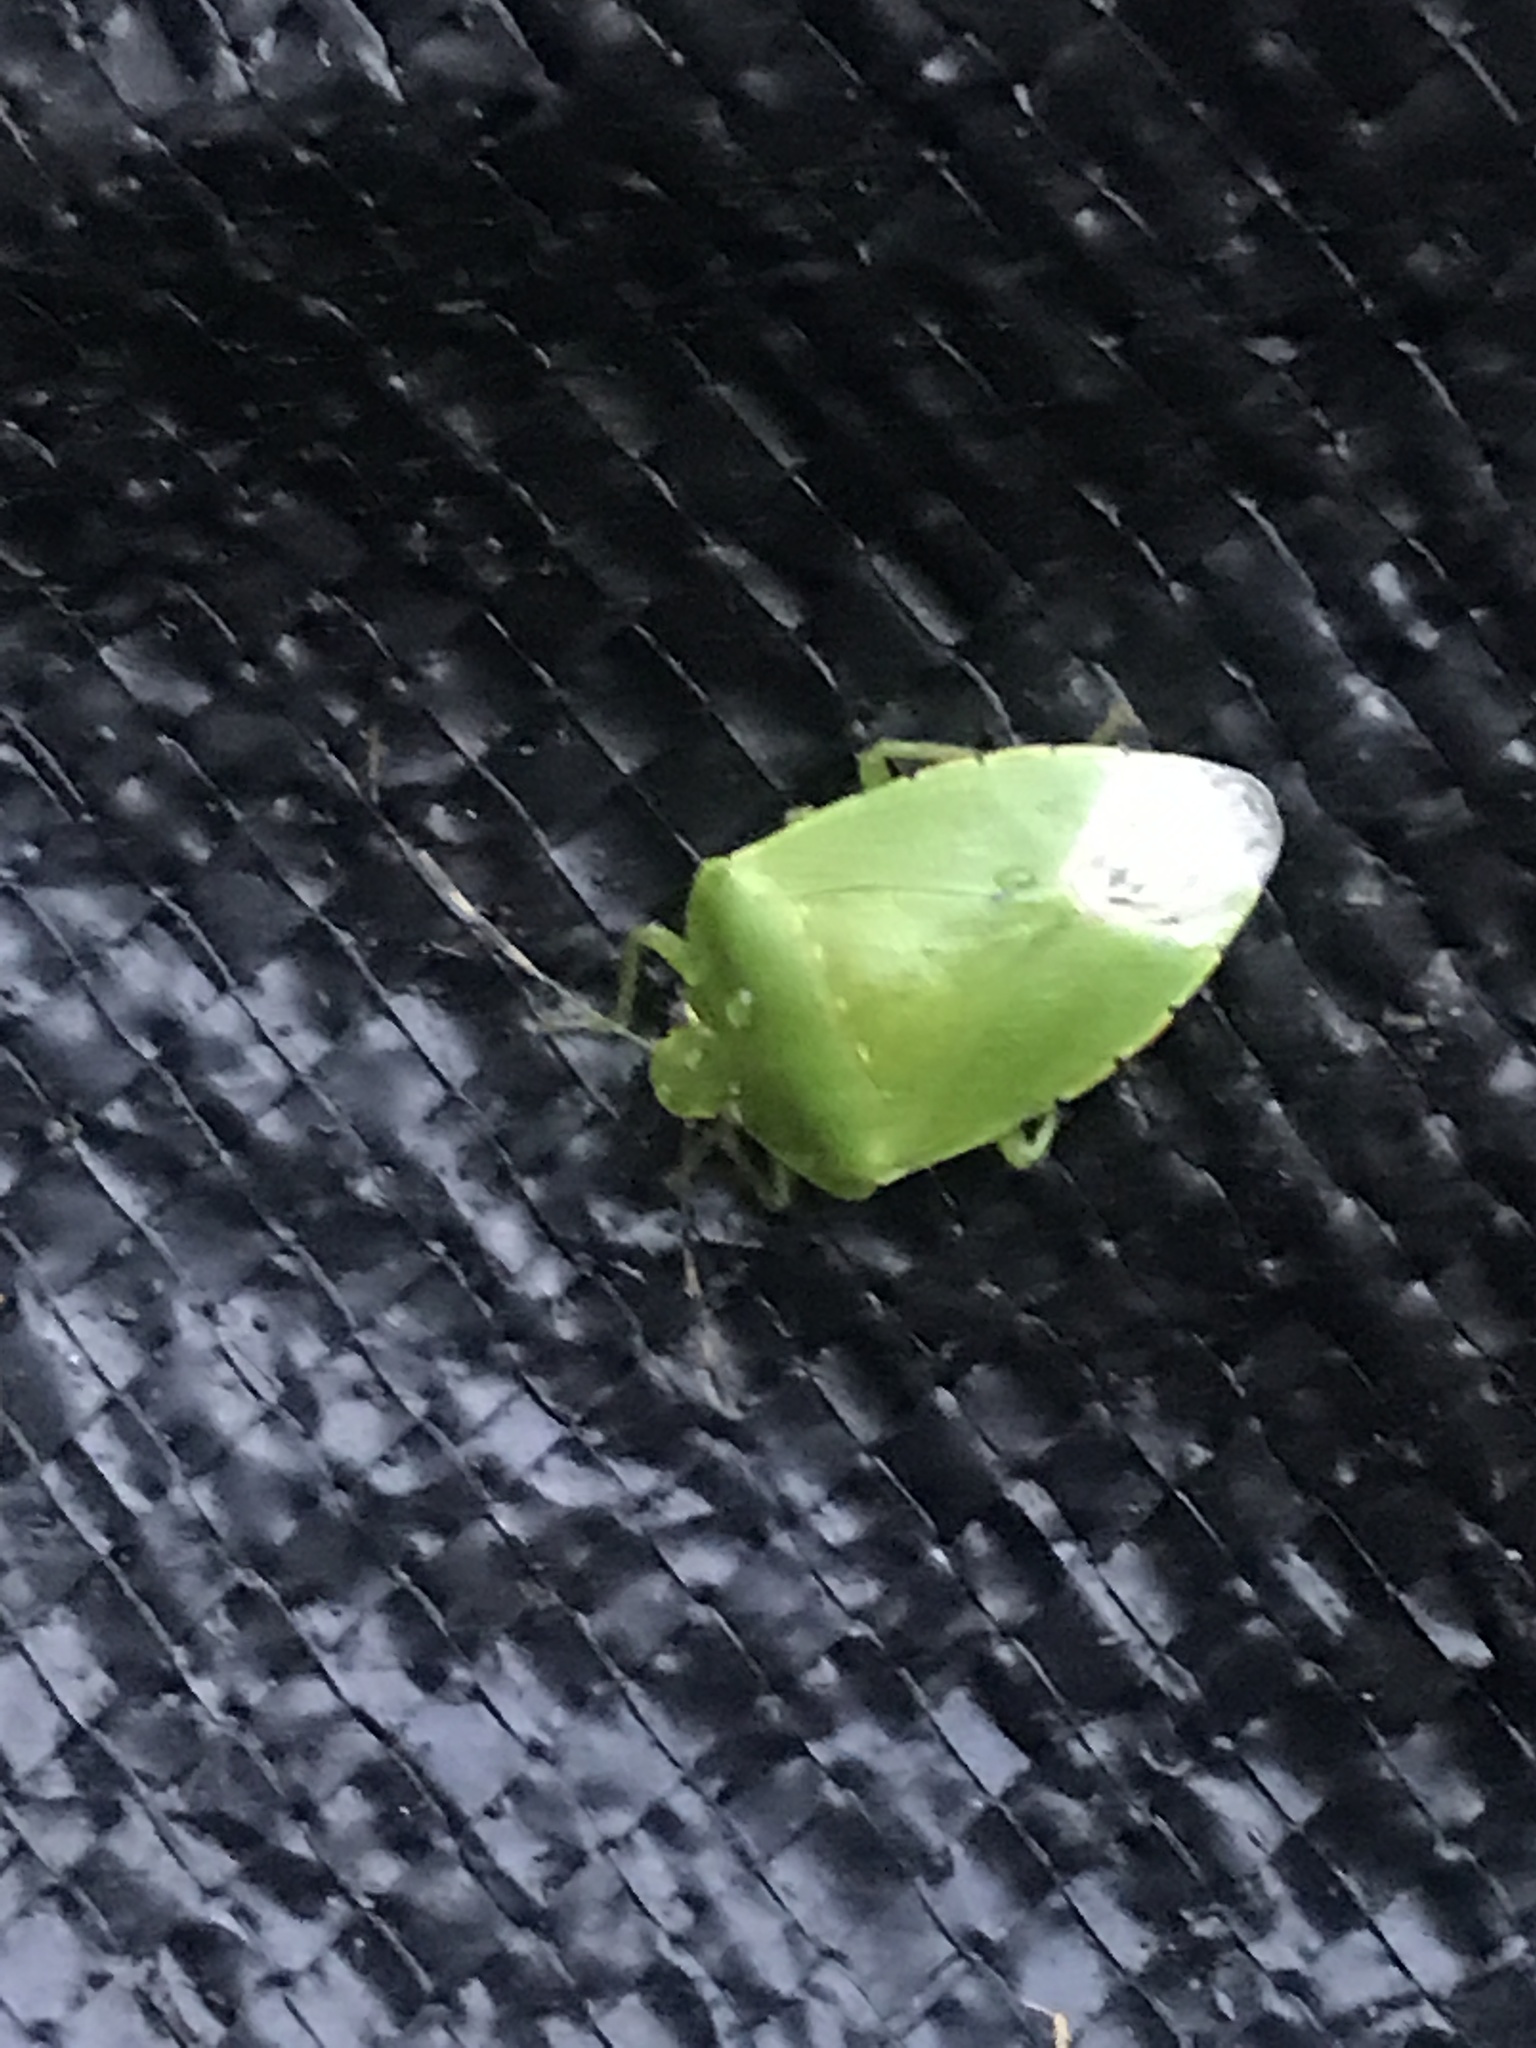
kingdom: Animalia
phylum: Arthropoda
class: Insecta
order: Hemiptera
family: Pentatomidae
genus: Chinavia
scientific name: Chinavia hilaris
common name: Green stink bug
